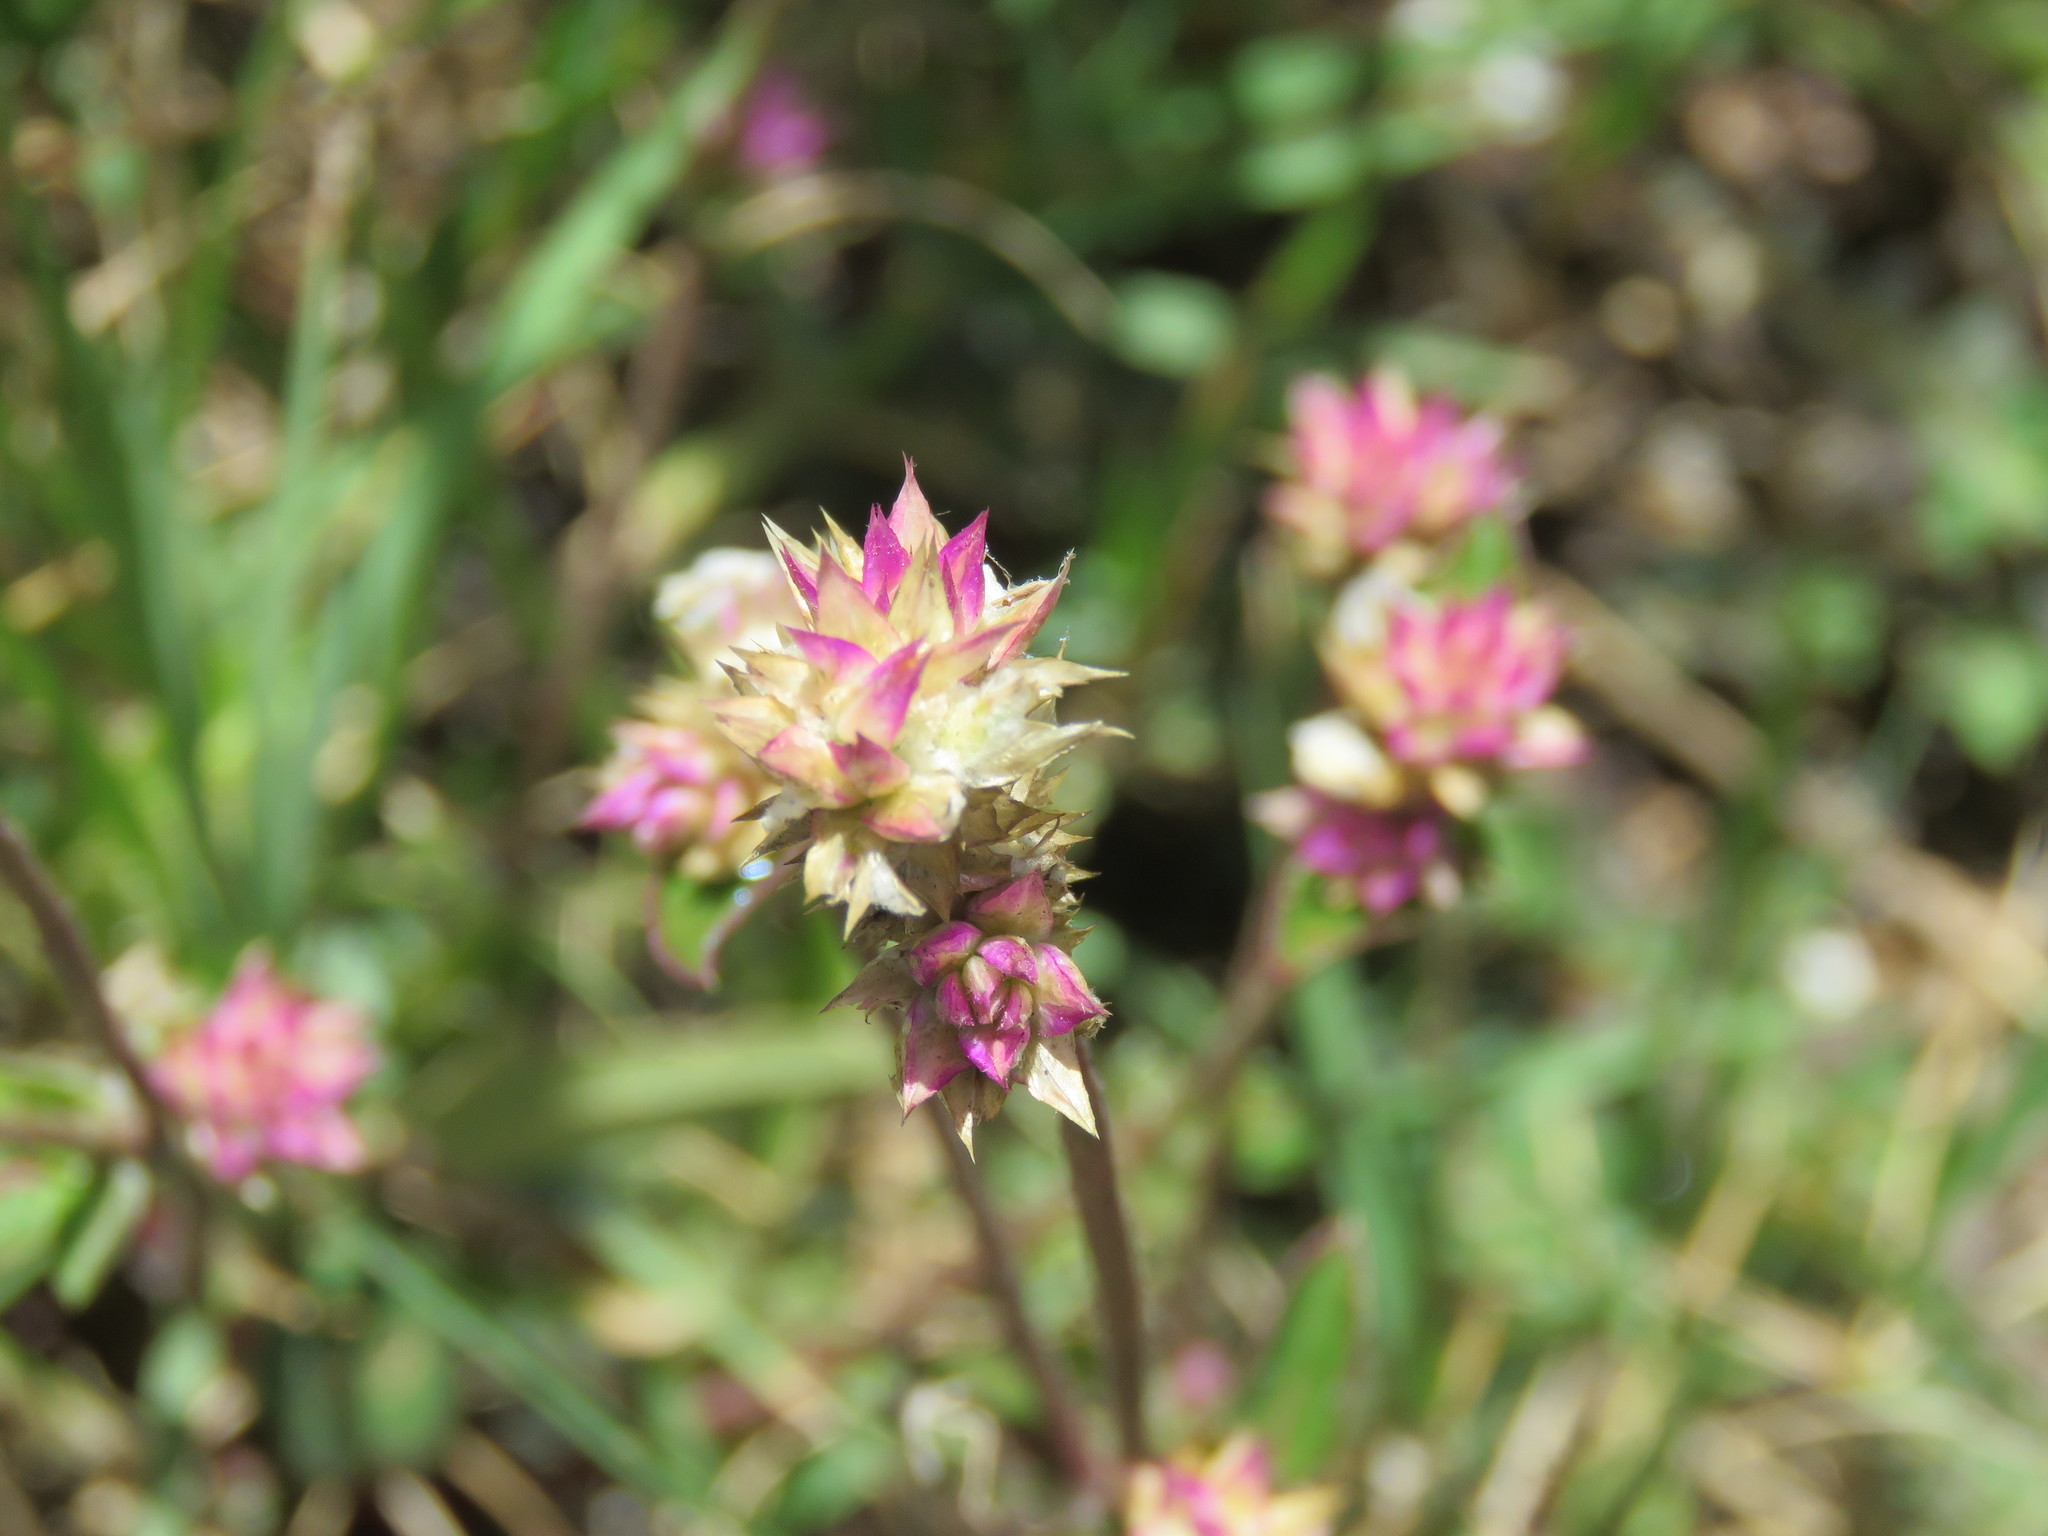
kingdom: Plantae
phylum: Tracheophyta
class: Magnoliopsida
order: Caryophyllales
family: Amaranthaceae
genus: Gomphrena
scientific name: Gomphrena serrata
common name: Arrasa con todo
